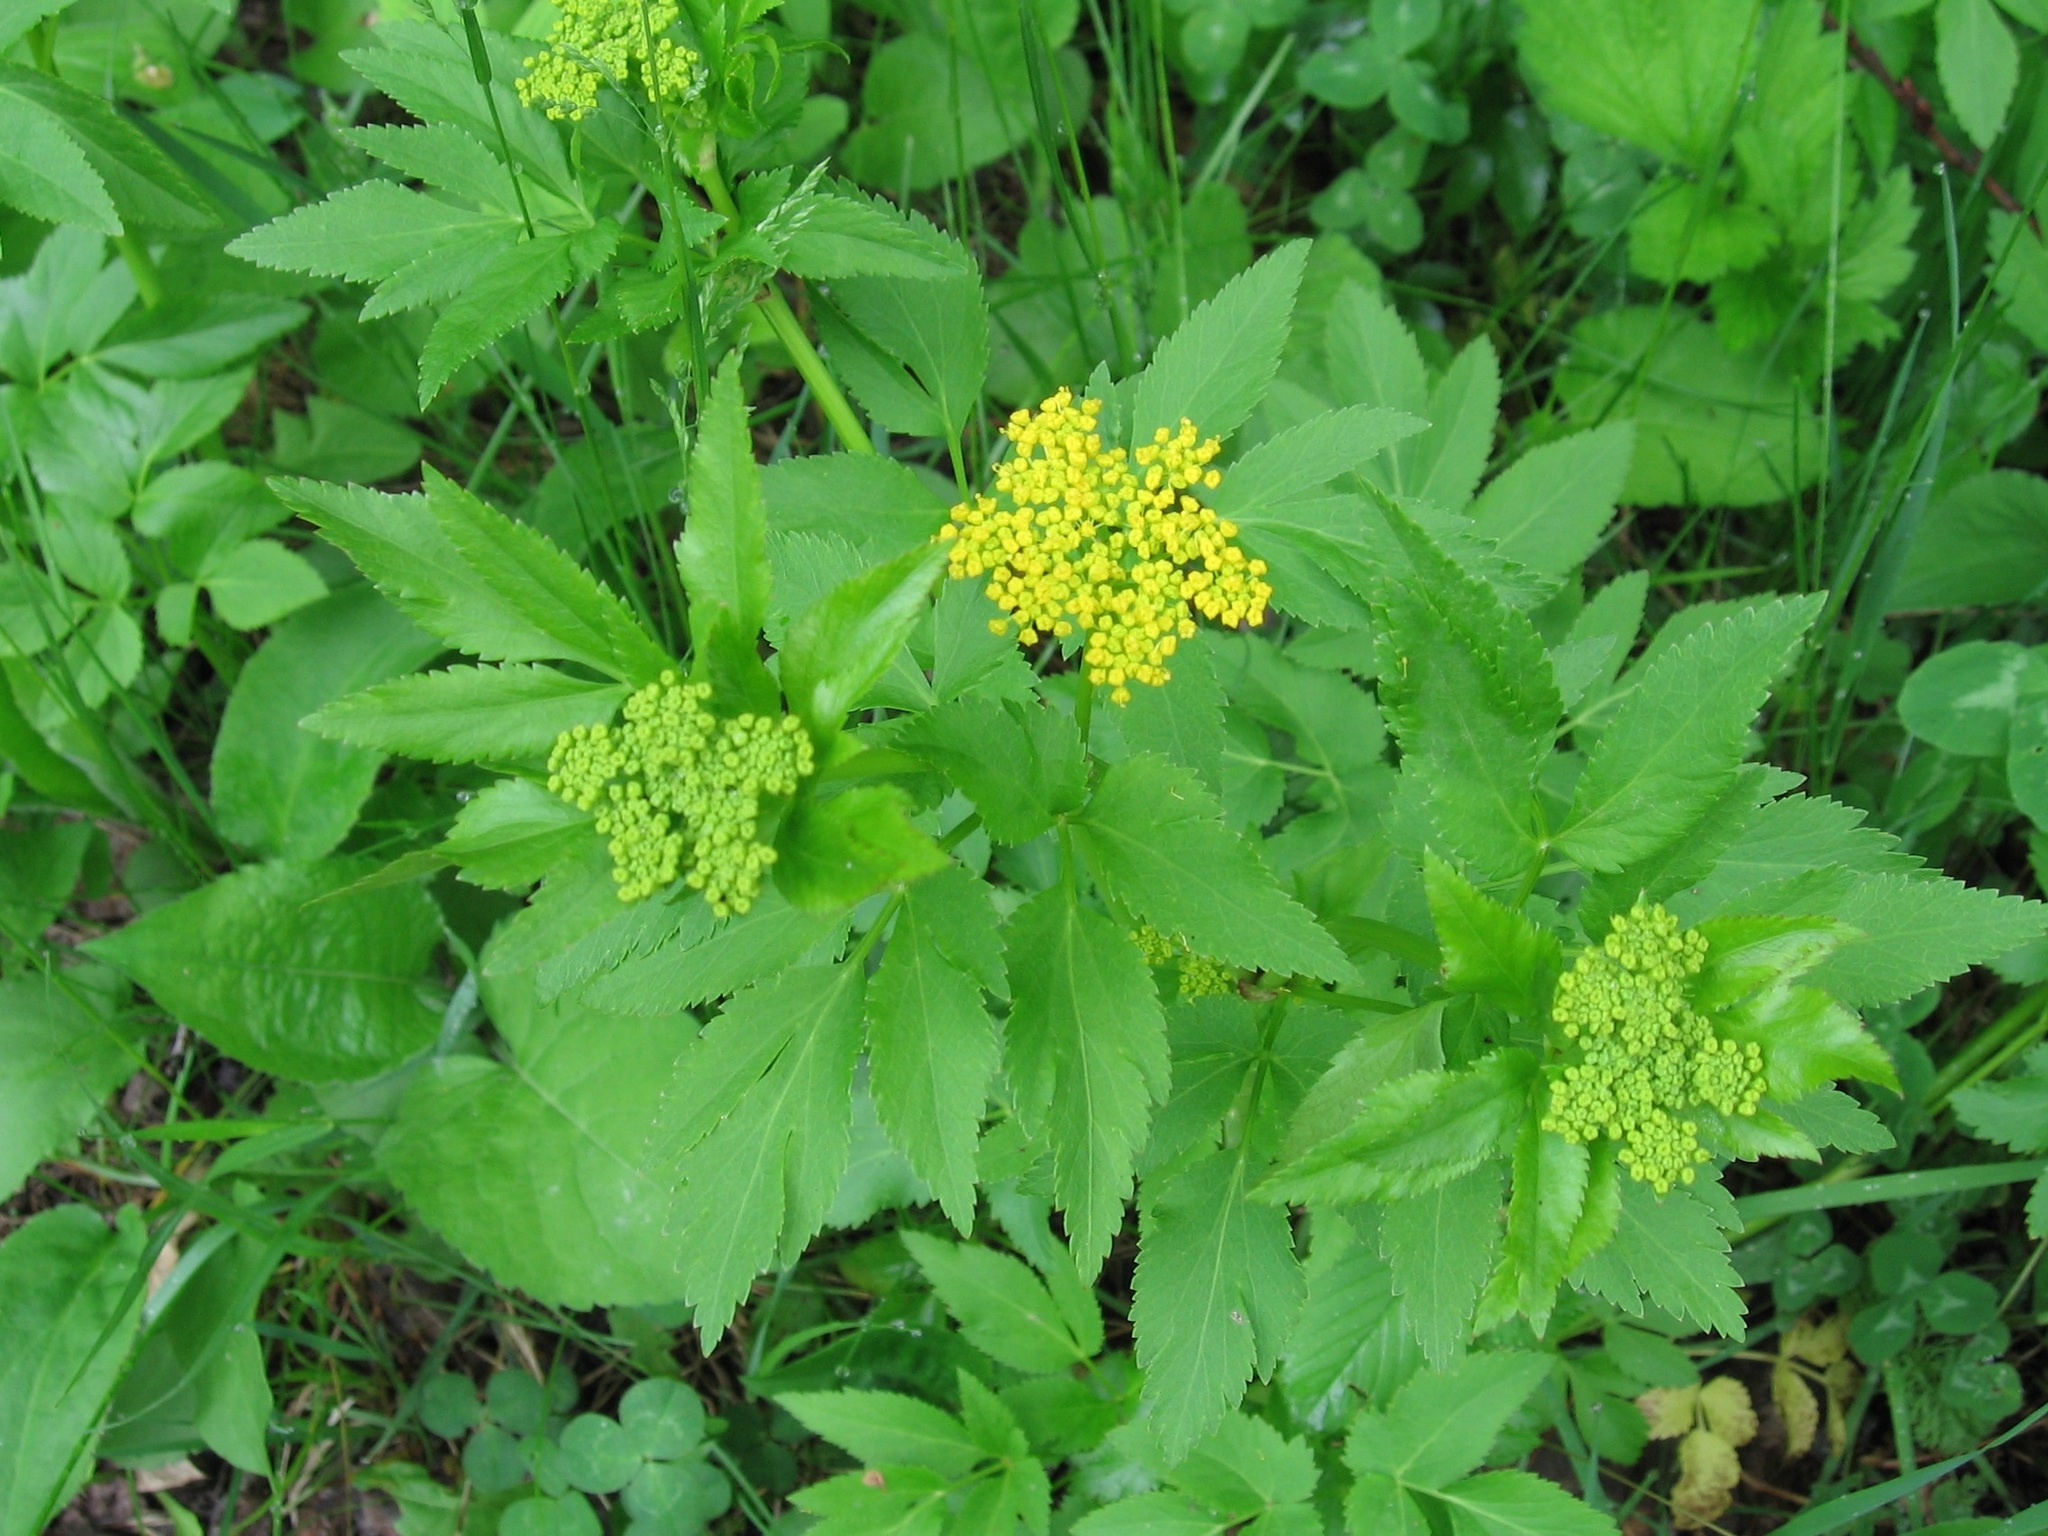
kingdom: Plantae
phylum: Tracheophyta
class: Magnoliopsida
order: Apiales
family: Apiaceae
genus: Zizia
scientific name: Zizia aurea
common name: Golden alexanders
